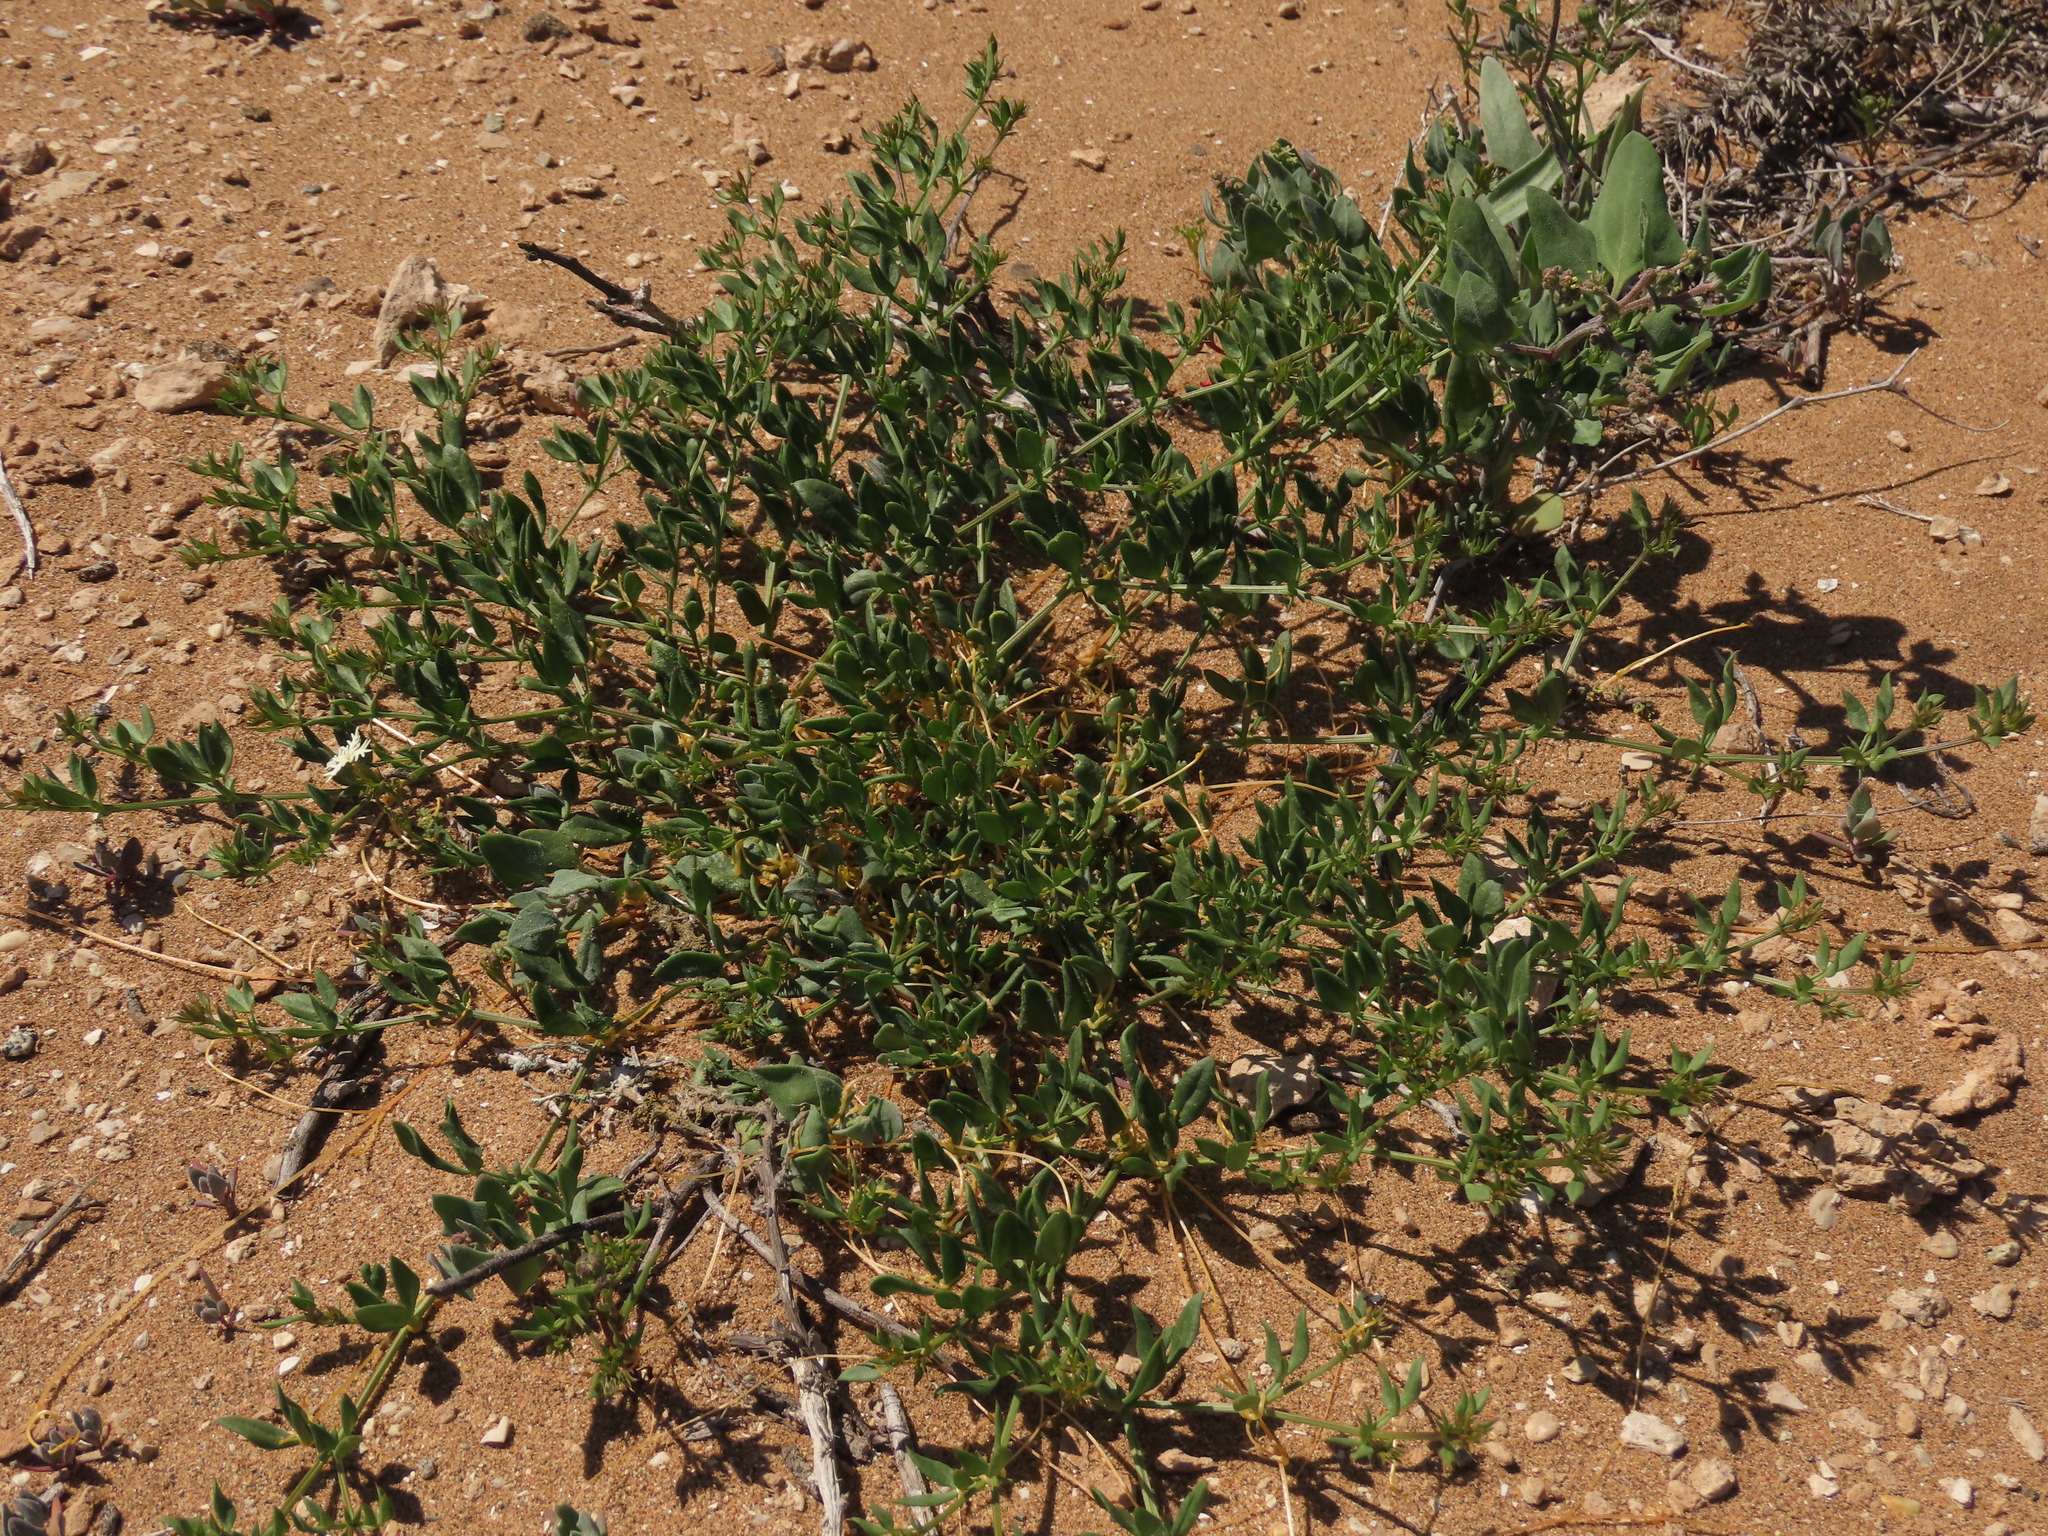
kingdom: Plantae
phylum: Tracheophyta
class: Magnoliopsida
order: Zygophyllales
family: Zygophyllaceae
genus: Fagonia
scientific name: Fagonia chilensis
